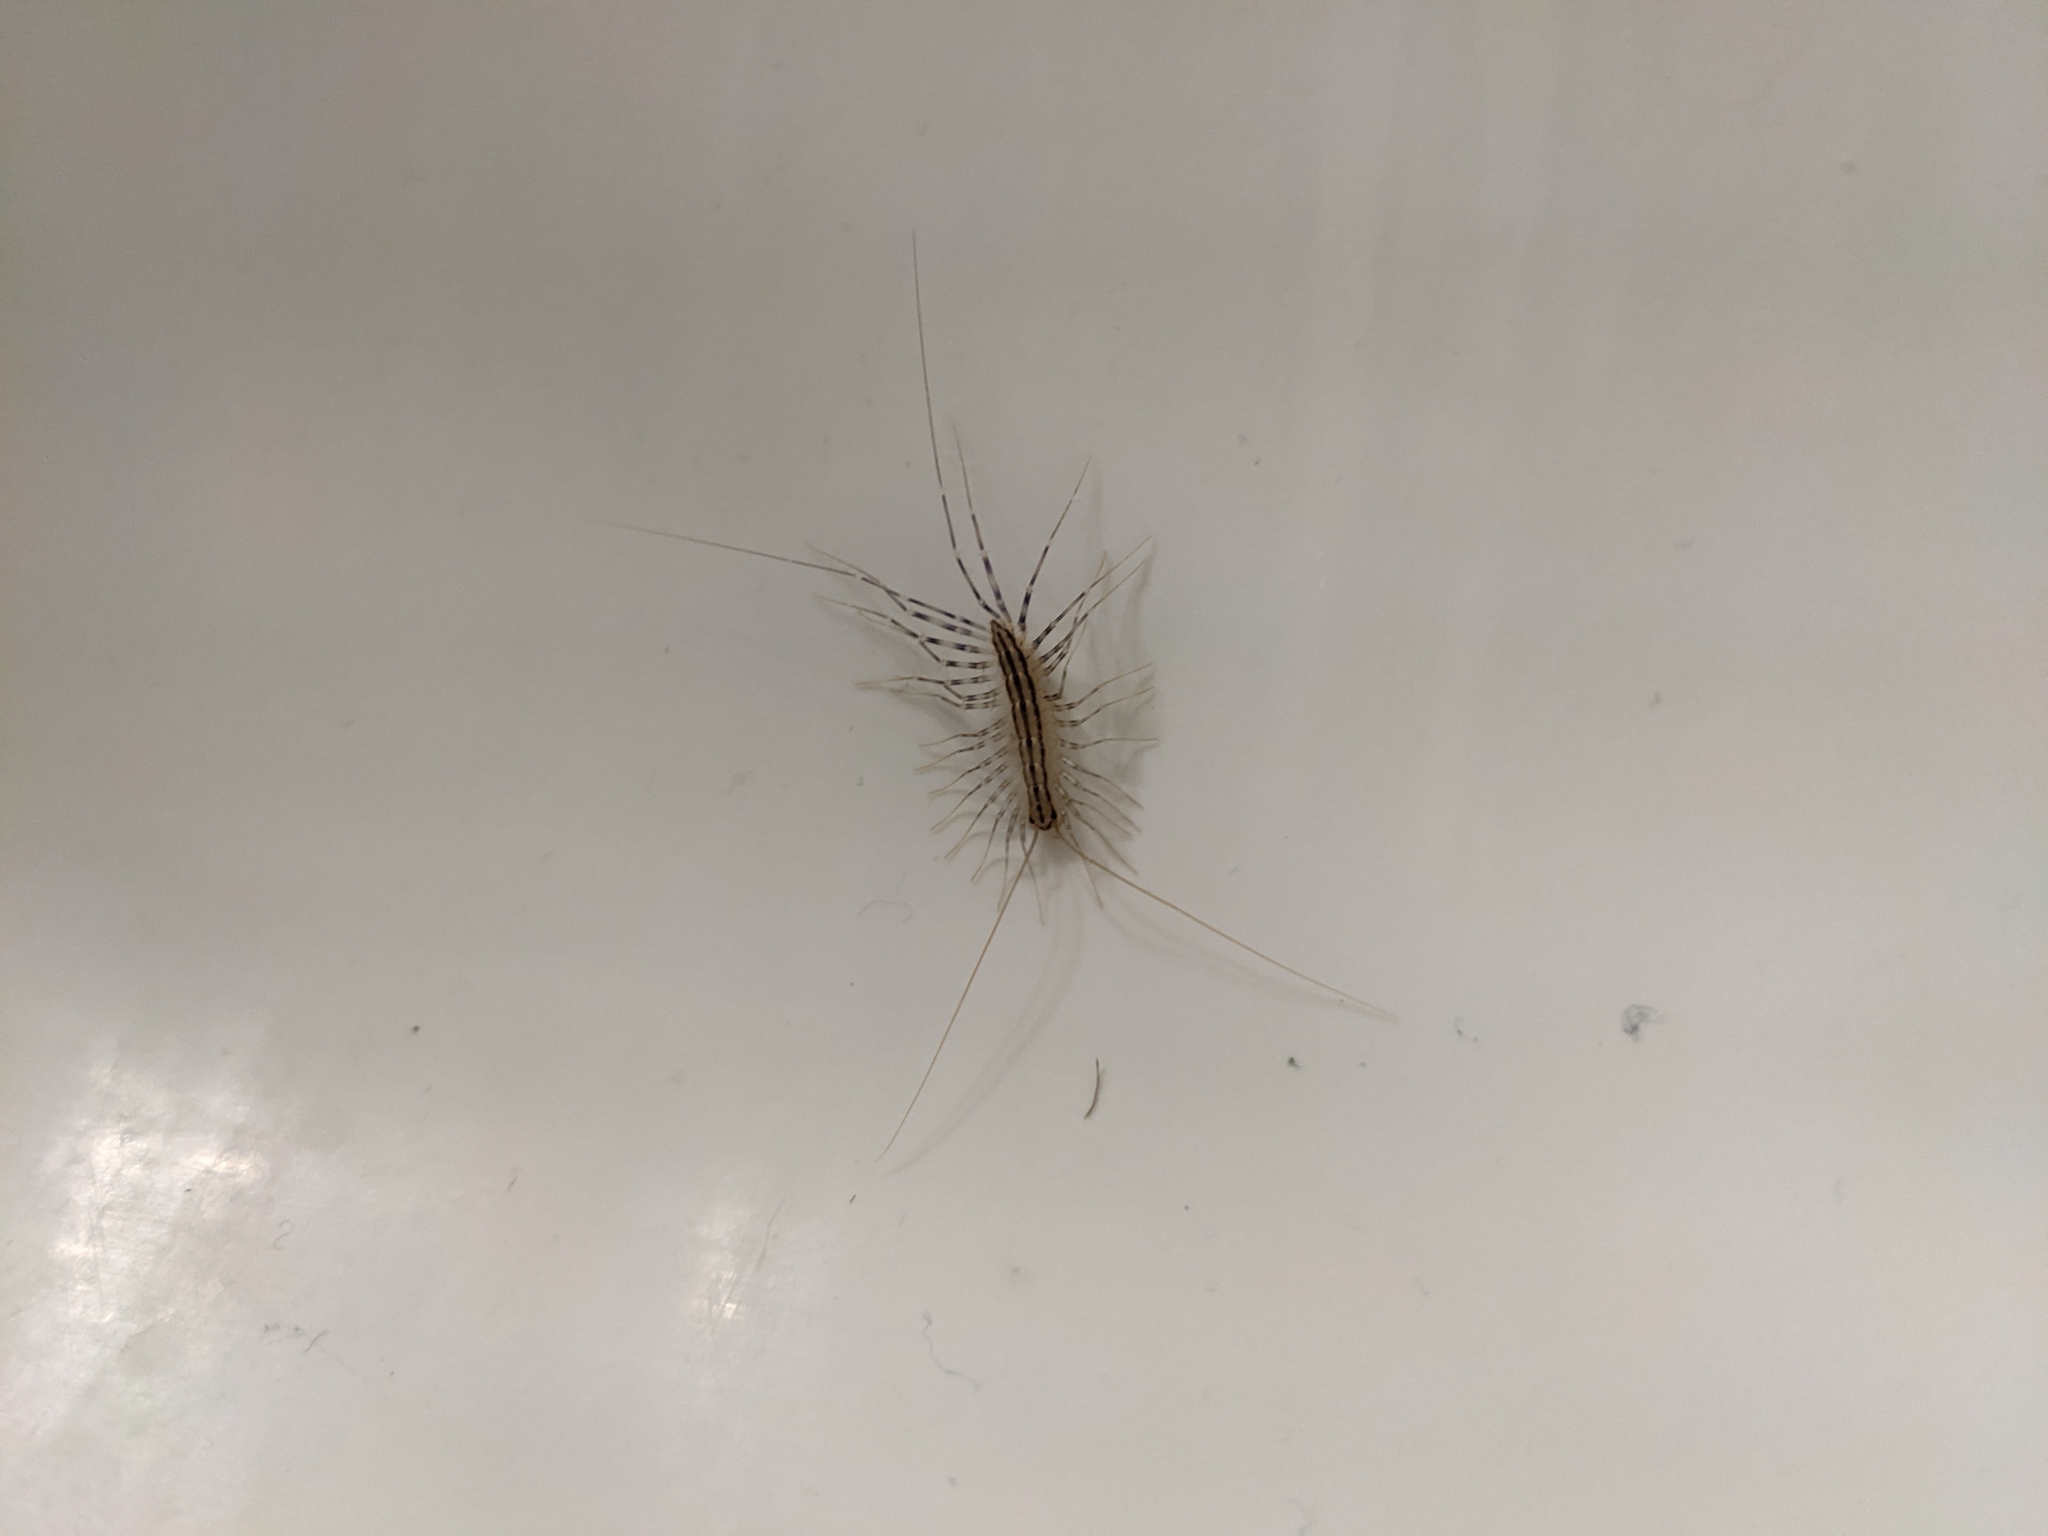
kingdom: Animalia
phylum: Arthropoda
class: Chilopoda
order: Scutigeromorpha
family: Scutigeridae
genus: Scutigera
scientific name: Scutigera coleoptrata
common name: House centipede
